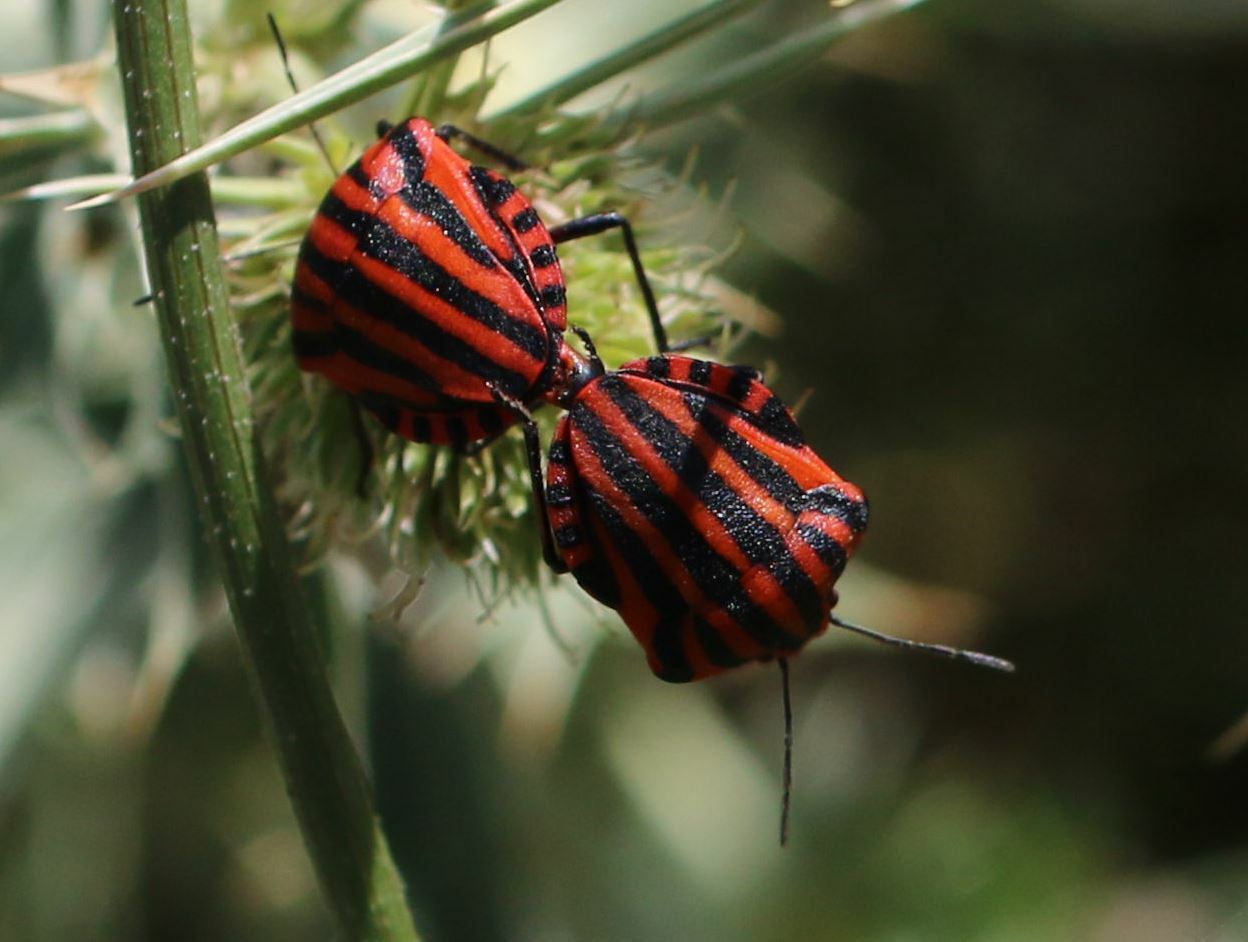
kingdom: Animalia
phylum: Arthropoda
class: Insecta
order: Hemiptera
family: Pentatomidae
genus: Graphosoma
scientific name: Graphosoma italicum
